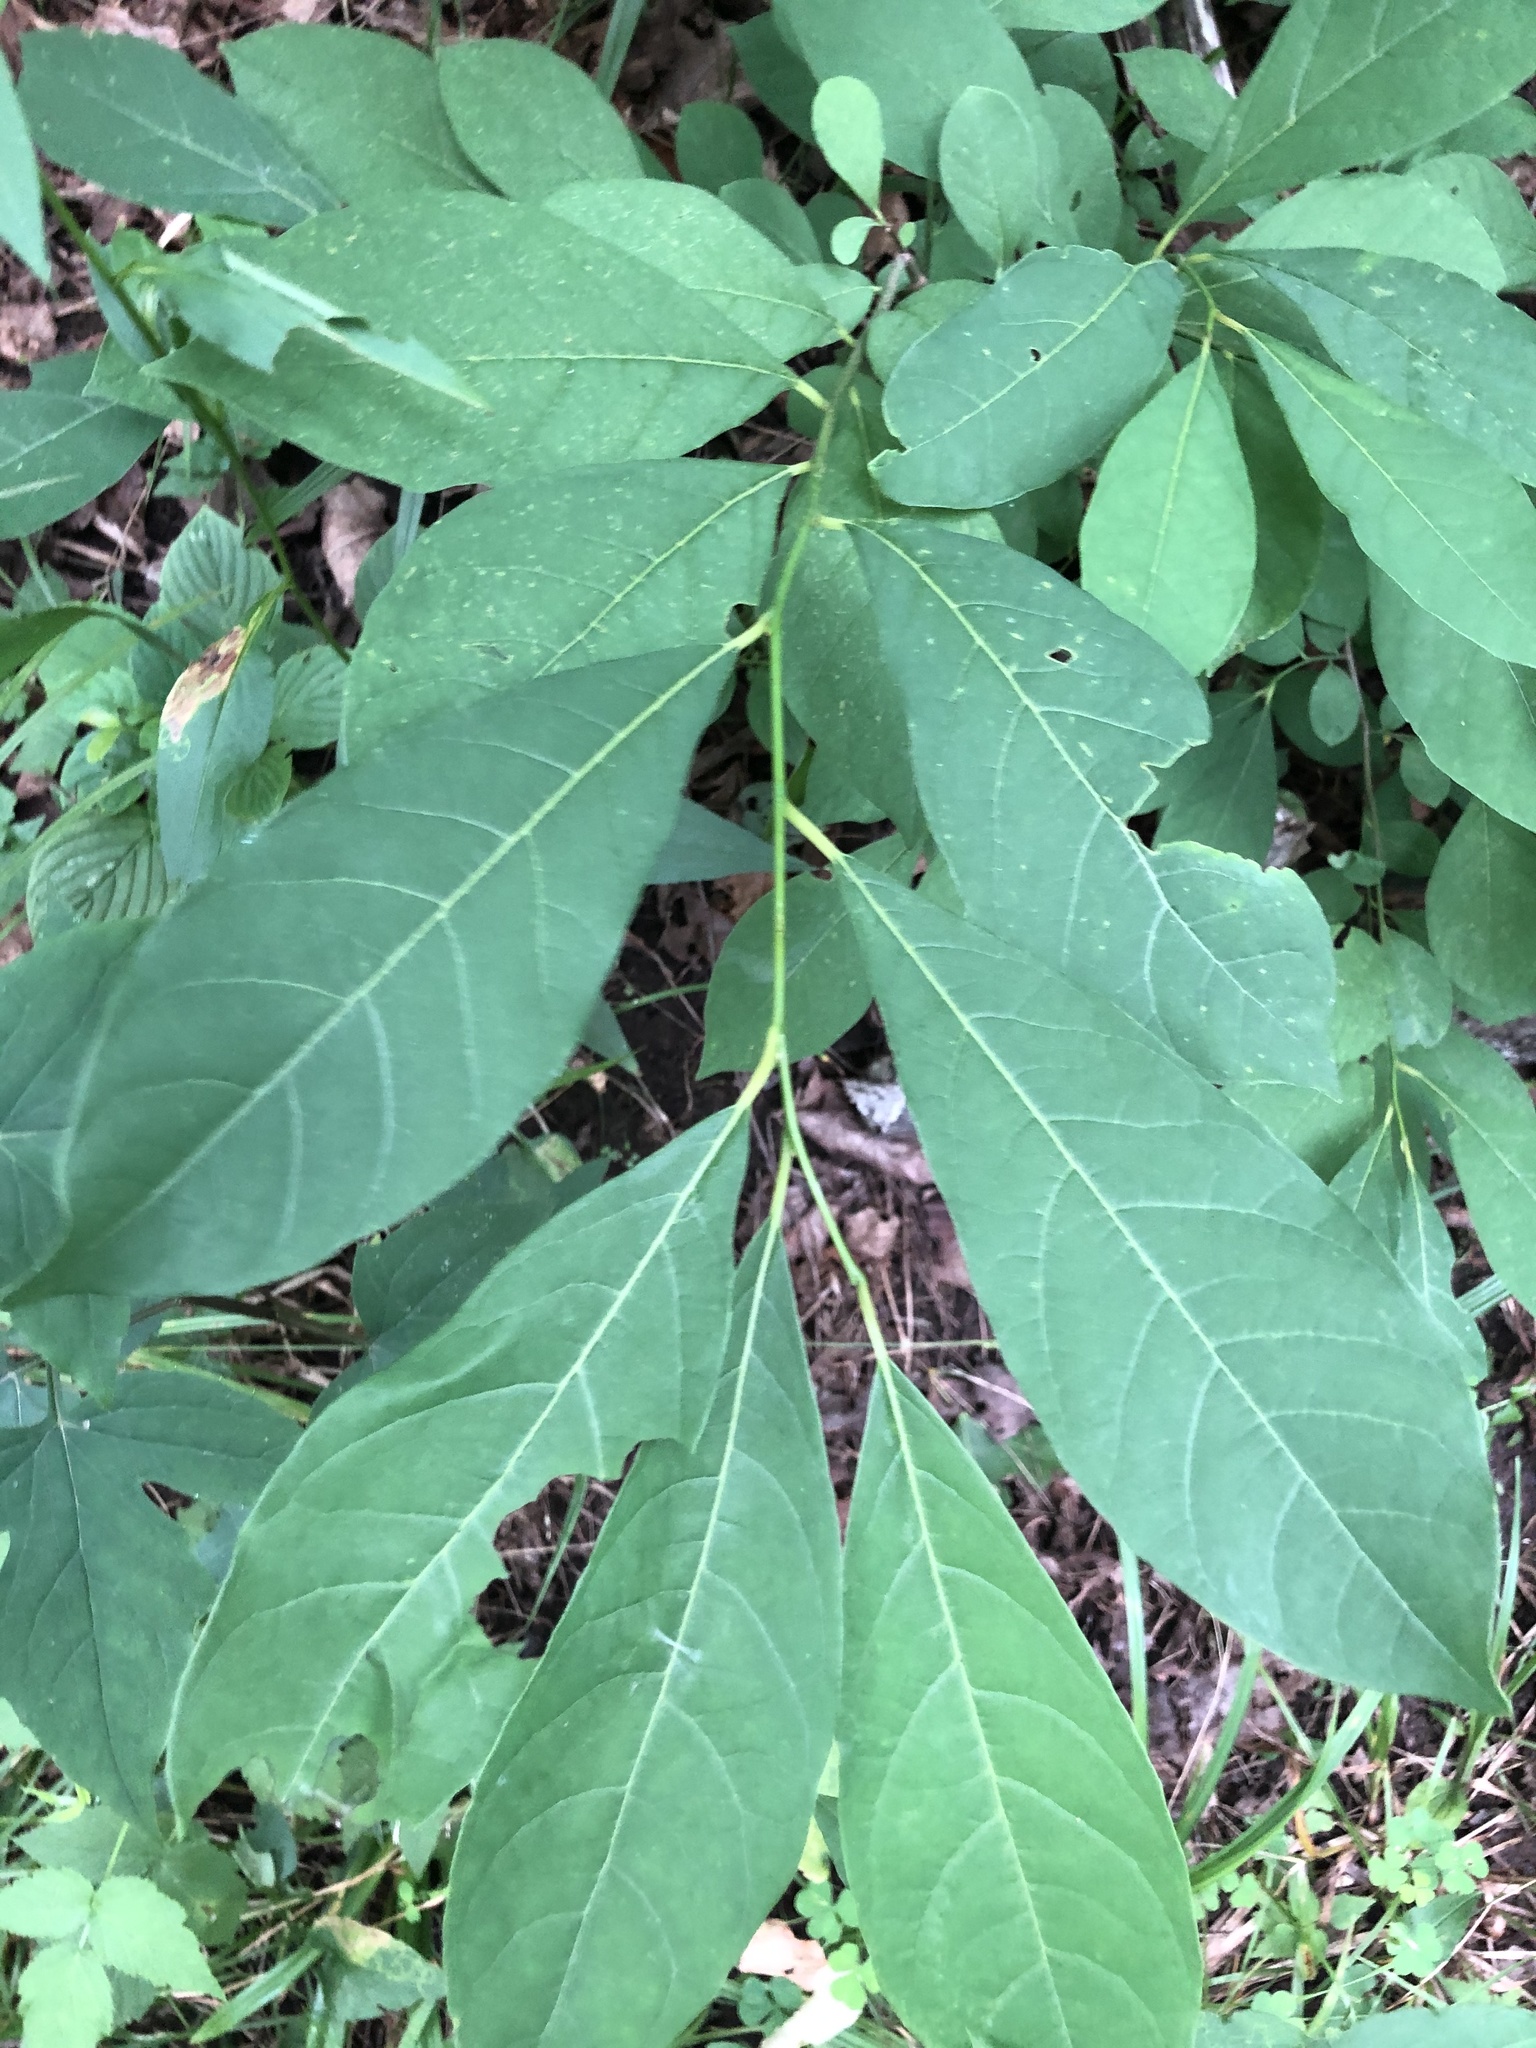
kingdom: Plantae
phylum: Tracheophyta
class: Magnoliopsida
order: Laurales
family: Lauraceae
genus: Lindera
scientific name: Lindera benzoin
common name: Spicebush
